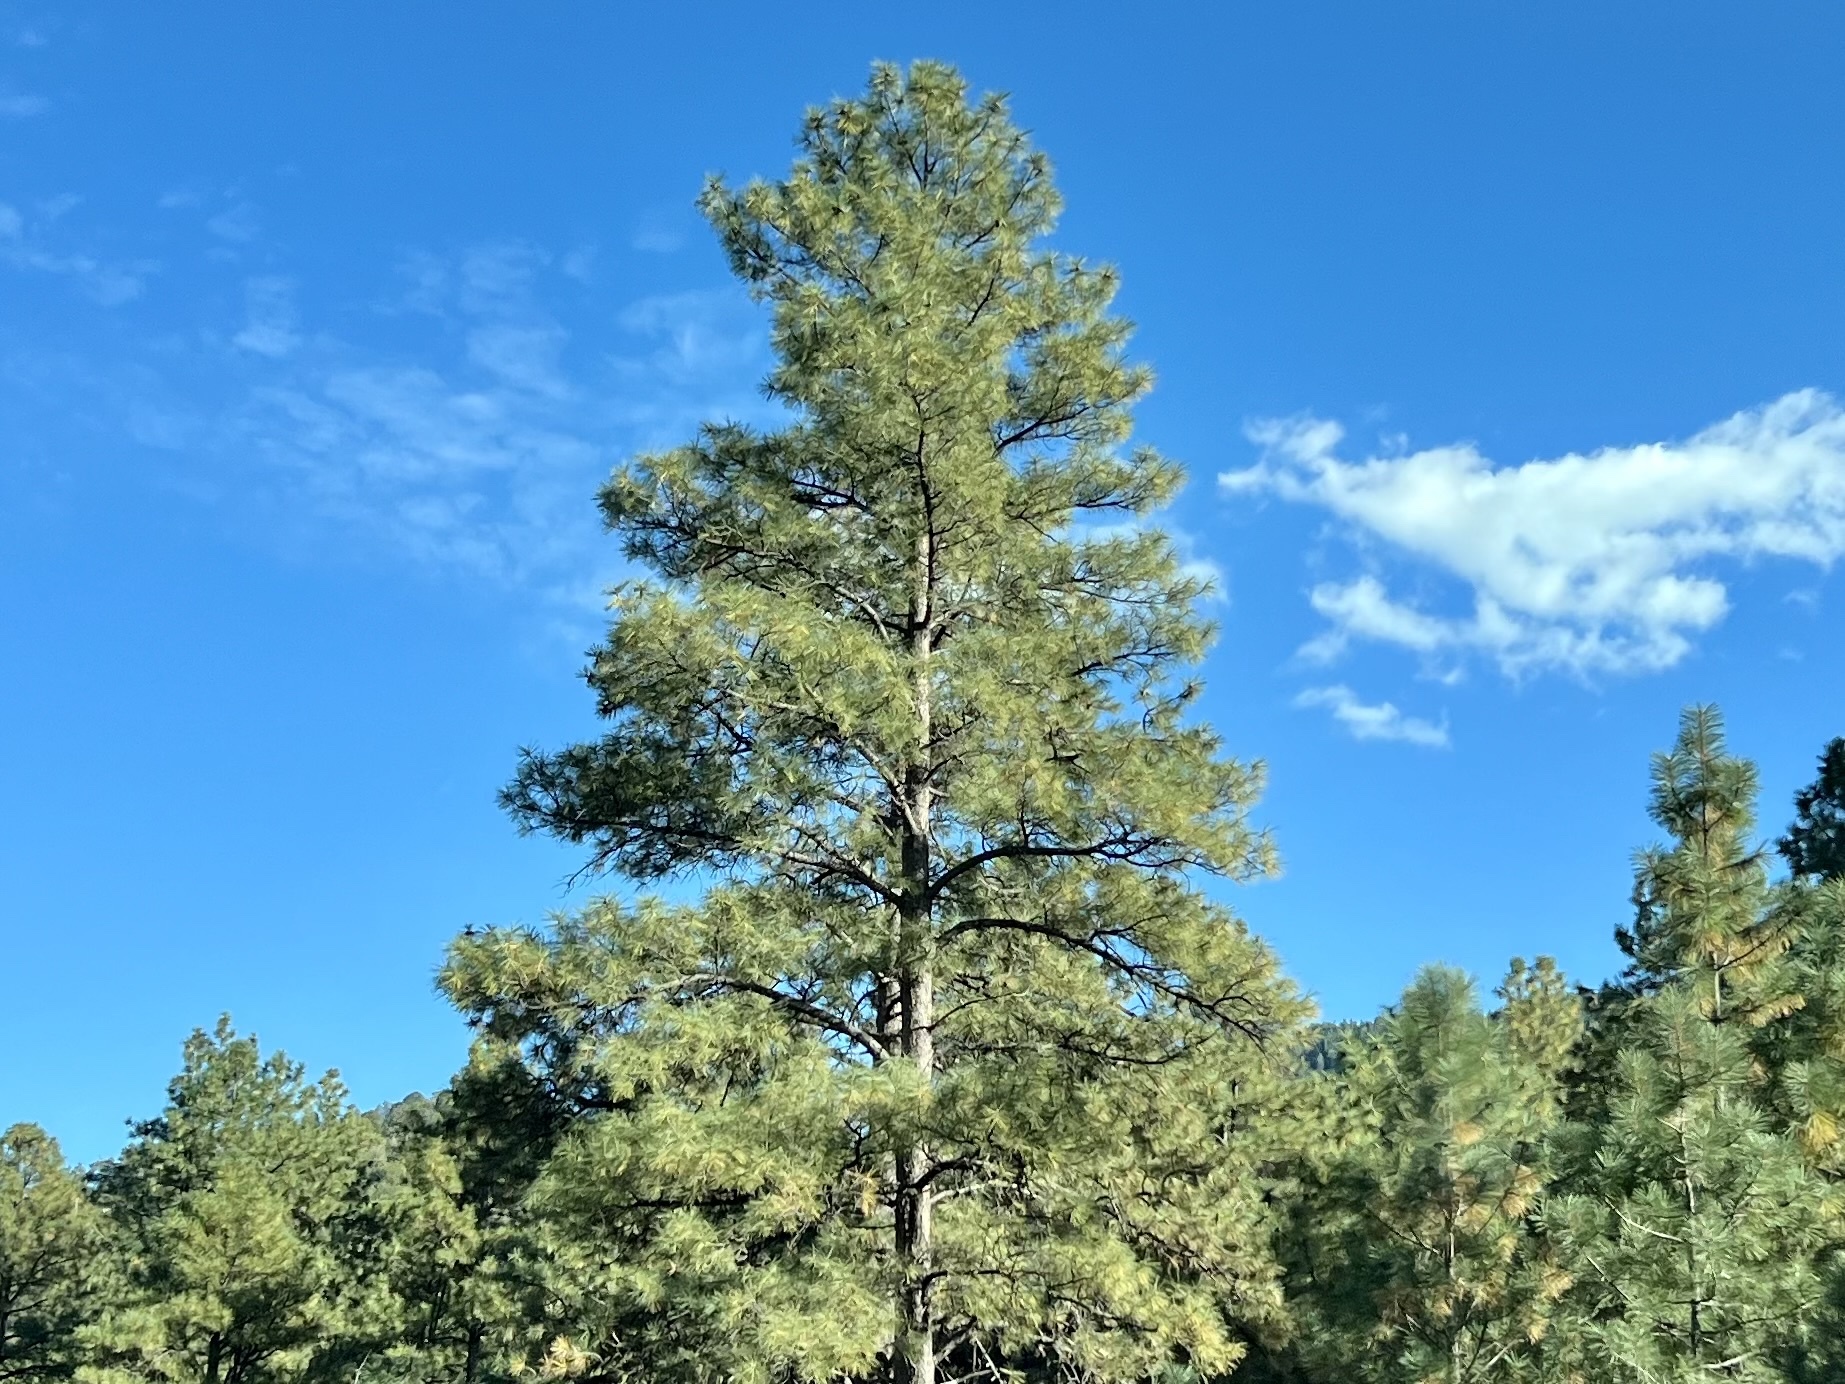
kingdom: Plantae
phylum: Tracheophyta
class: Pinopsida
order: Pinales
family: Pinaceae
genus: Pinus
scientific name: Pinus ponderosa
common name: Western yellow-pine
